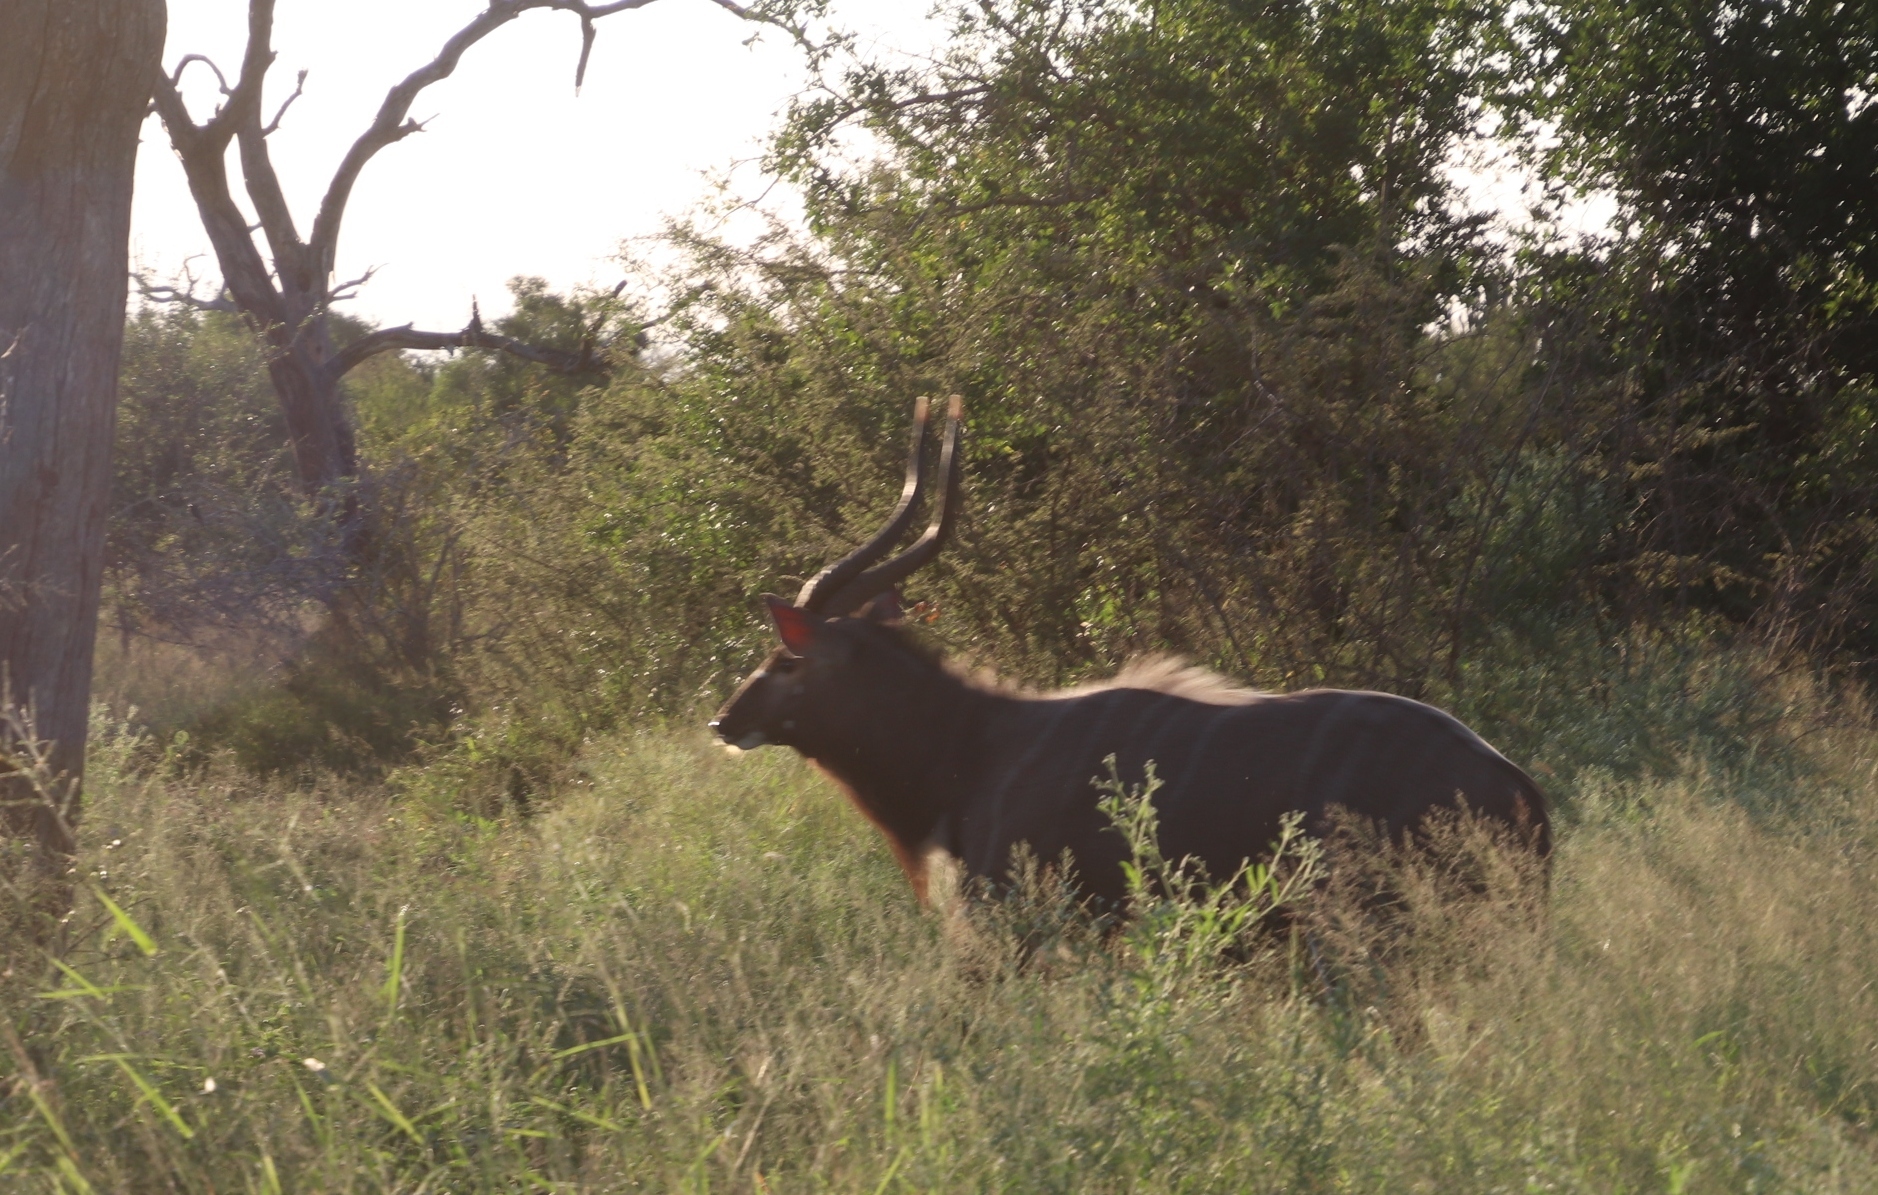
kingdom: Animalia
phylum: Chordata
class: Mammalia
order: Artiodactyla
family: Bovidae
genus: Tragelaphus
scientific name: Tragelaphus angasii
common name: Nyala
